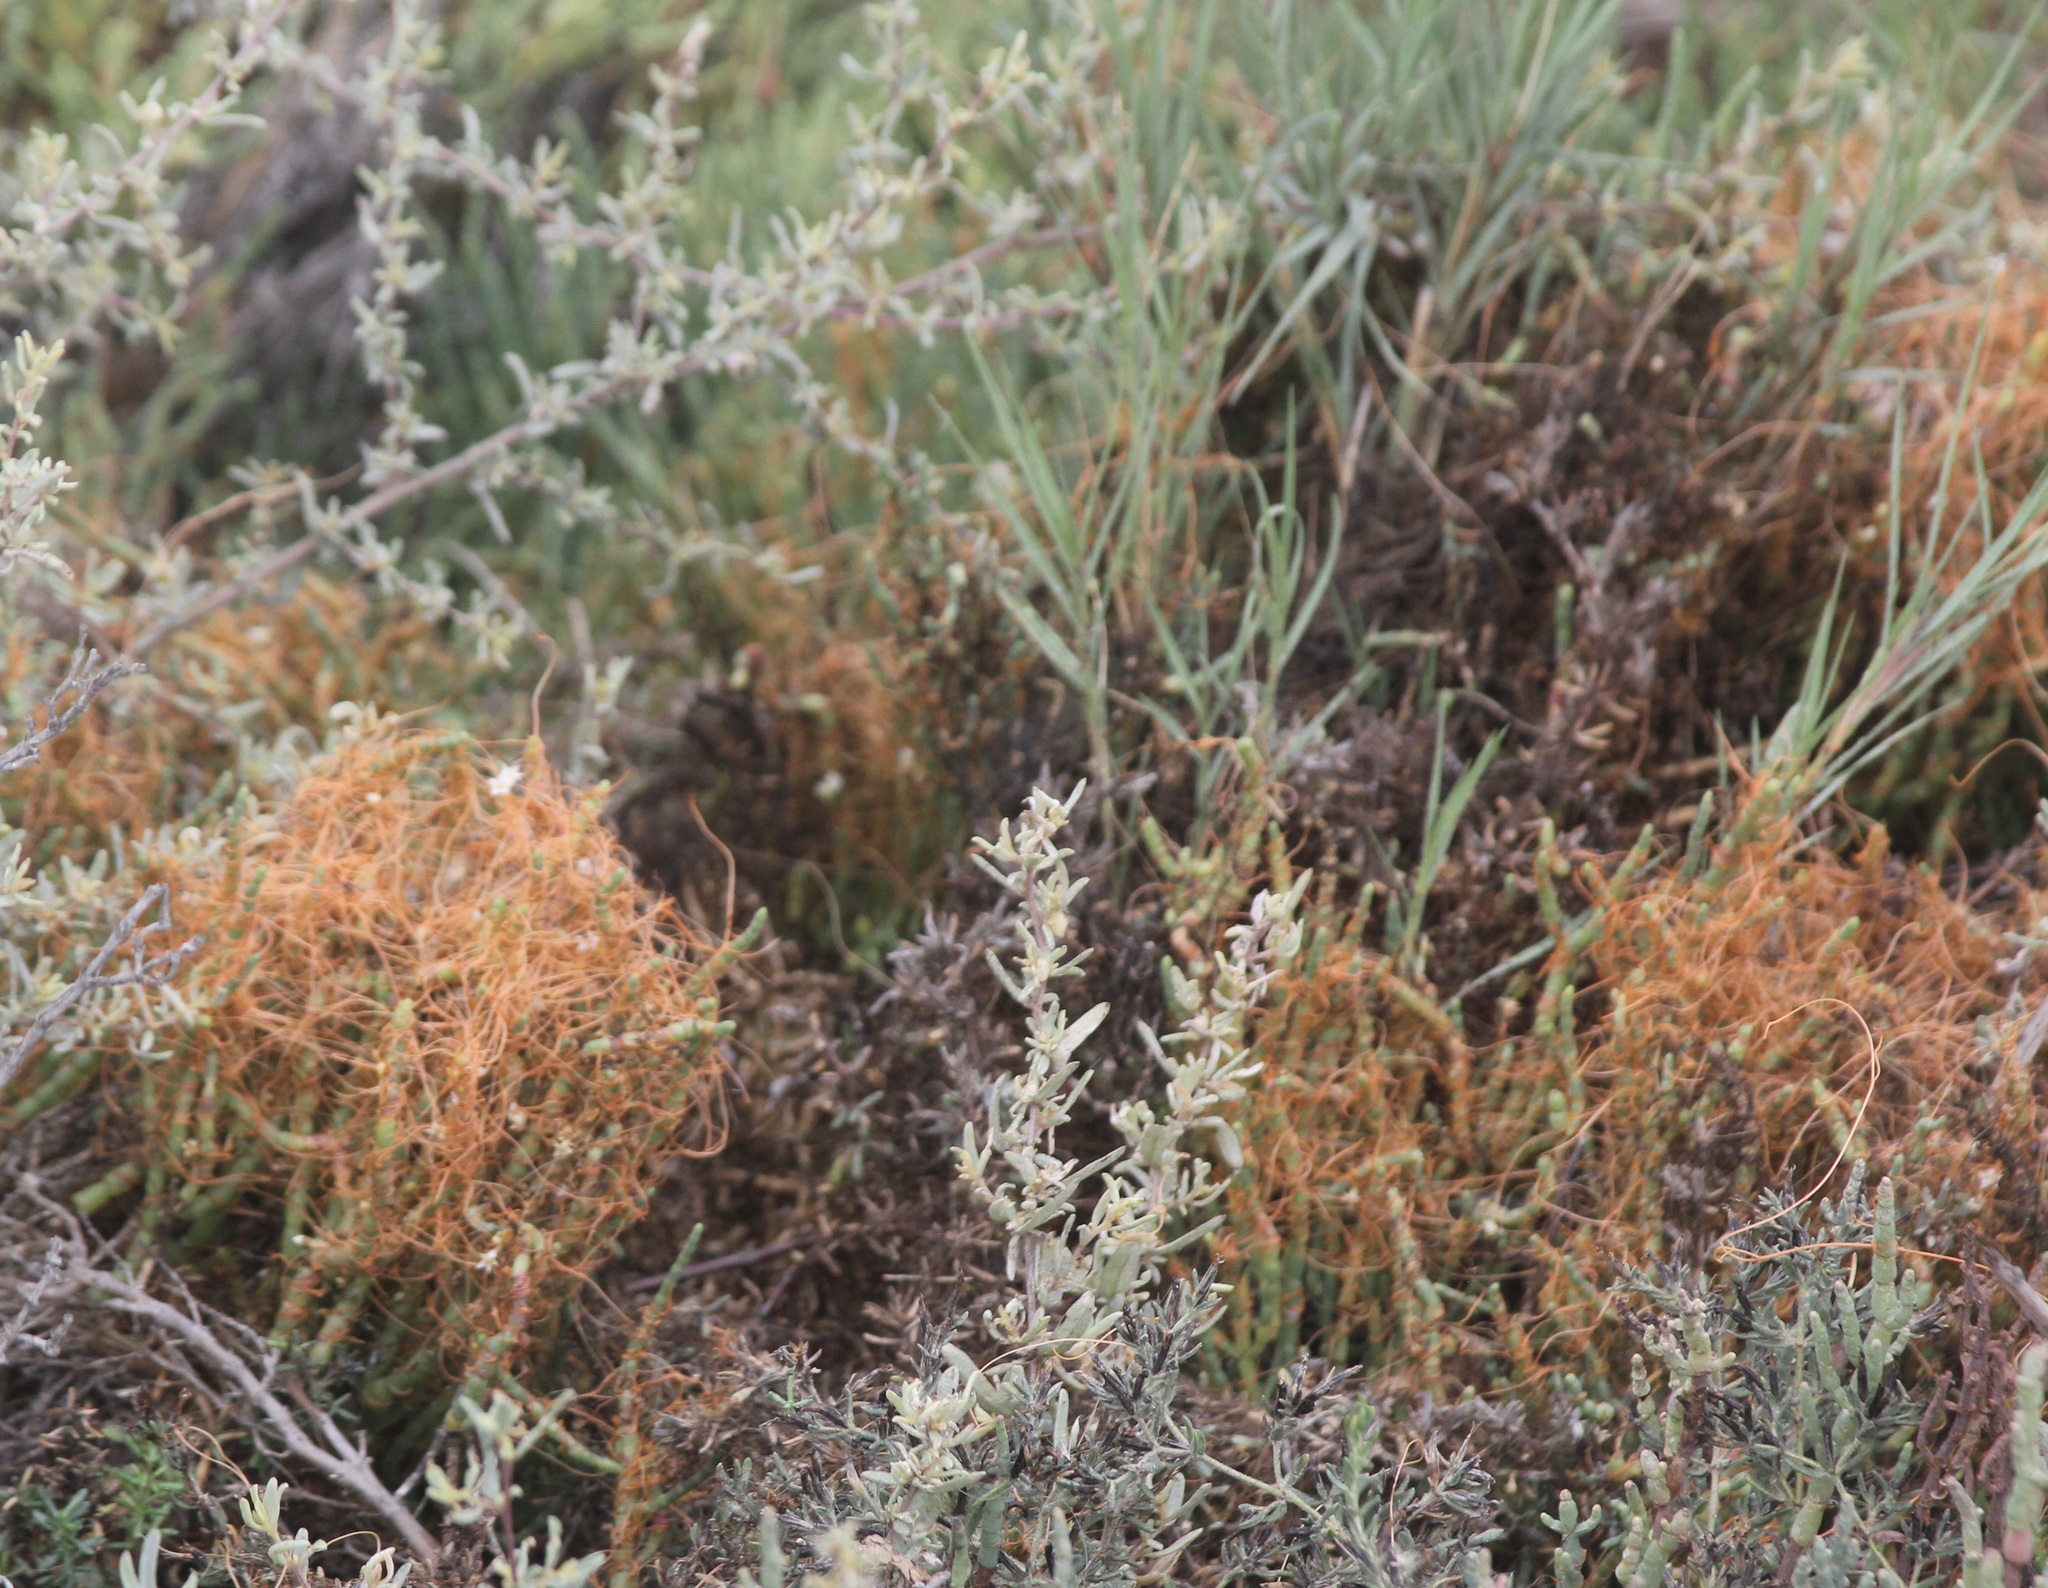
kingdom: Plantae
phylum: Tracheophyta
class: Magnoliopsida
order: Solanales
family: Convolvulaceae
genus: Cuscuta
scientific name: Cuscuta pacifica
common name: Large saltmarsh dodder
